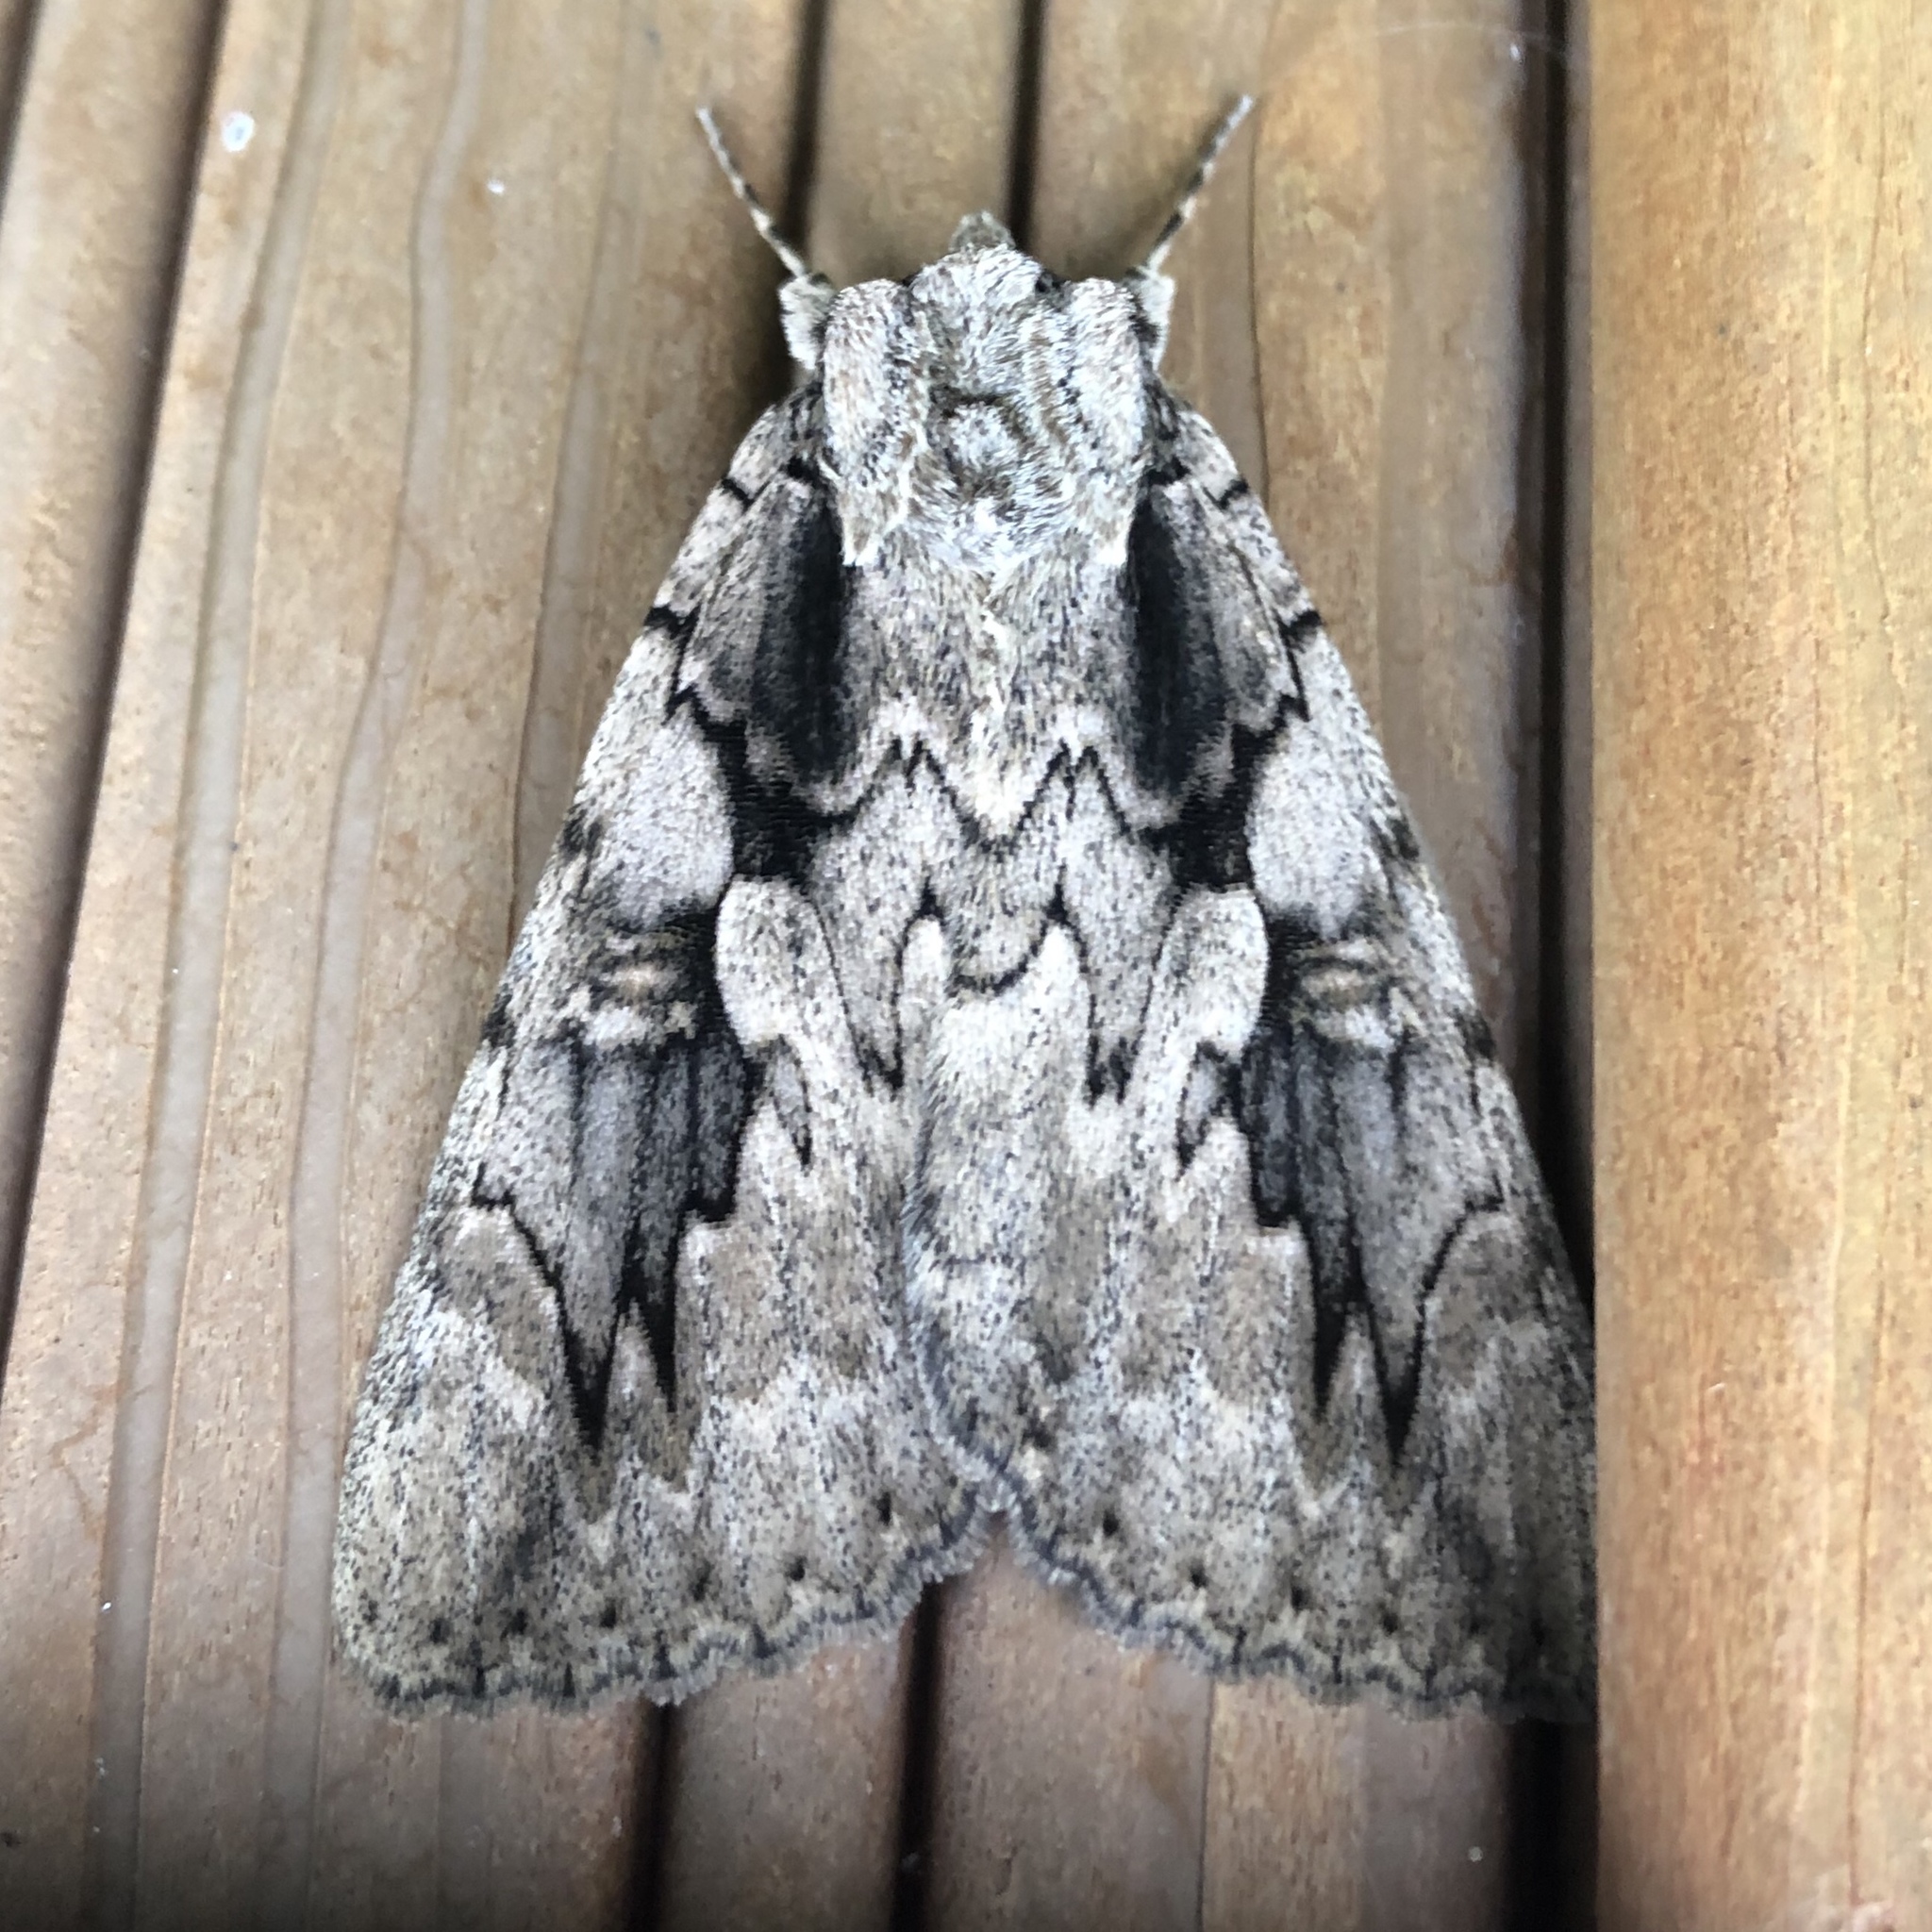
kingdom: Animalia
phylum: Arthropoda
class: Insecta
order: Lepidoptera
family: Erebidae
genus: Catocala
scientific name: Catocala amatrix
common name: Sweetheart underwing
